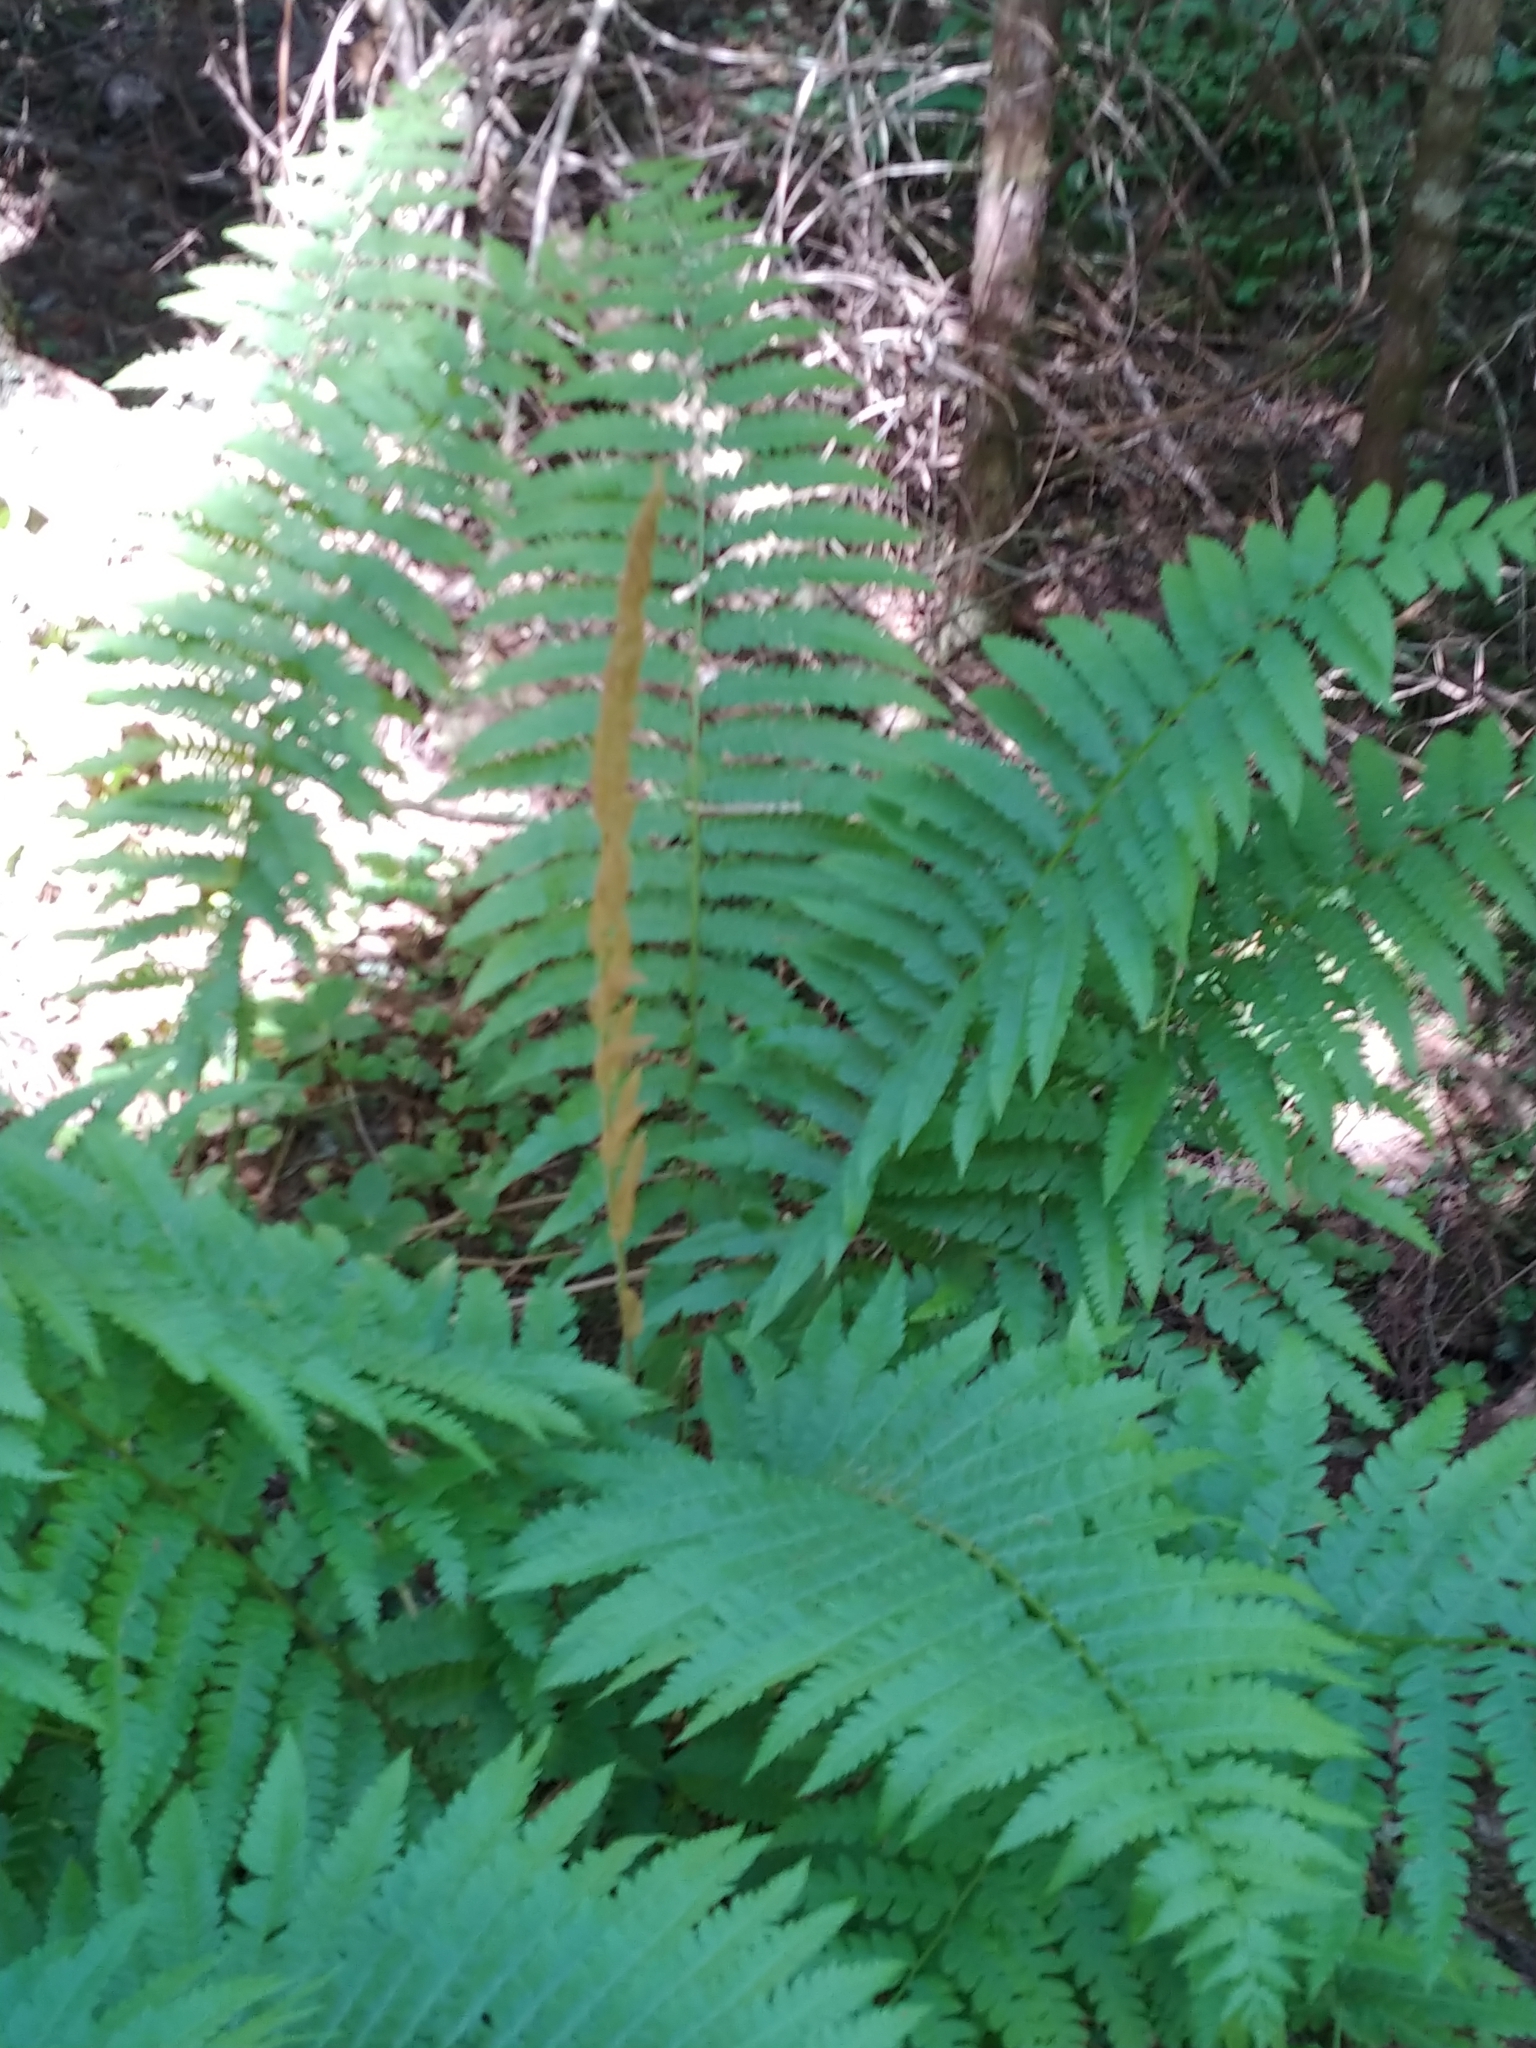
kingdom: Plantae
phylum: Tracheophyta
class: Polypodiopsida
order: Osmundales
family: Osmundaceae
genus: Osmundastrum
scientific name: Osmundastrum cinnamomeum
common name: Cinnamon fern
